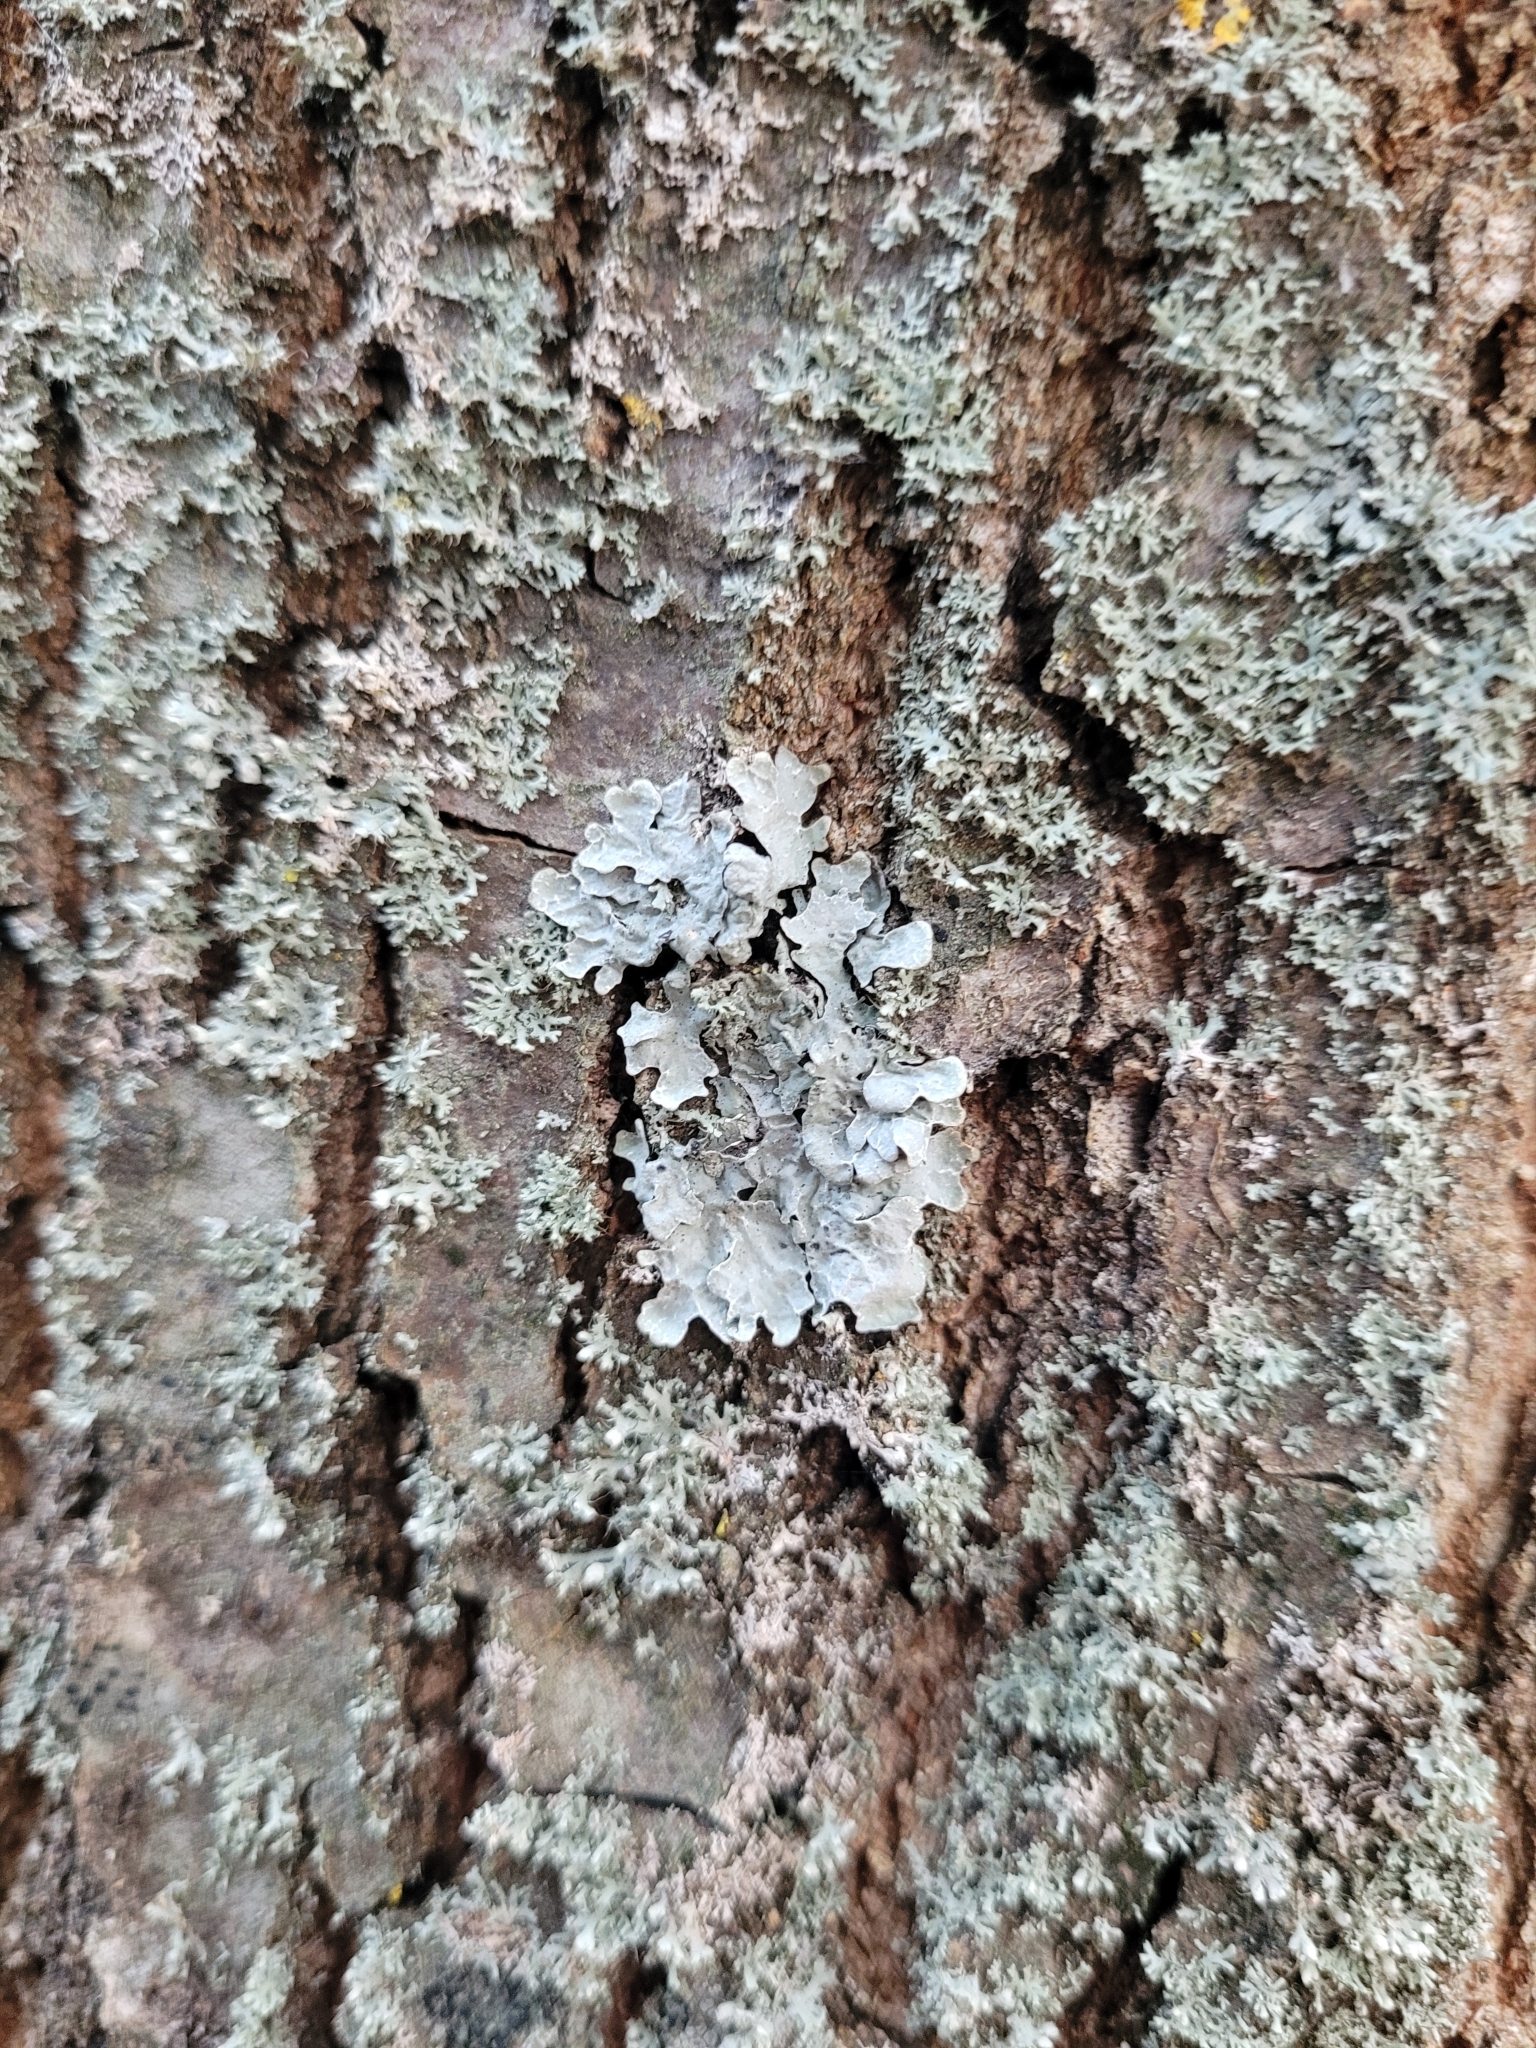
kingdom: Fungi
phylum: Ascomycota
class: Lecanoromycetes
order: Lecanorales
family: Parmeliaceae
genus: Parmelia
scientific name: Parmelia sulcata
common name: Netted shield lichen
